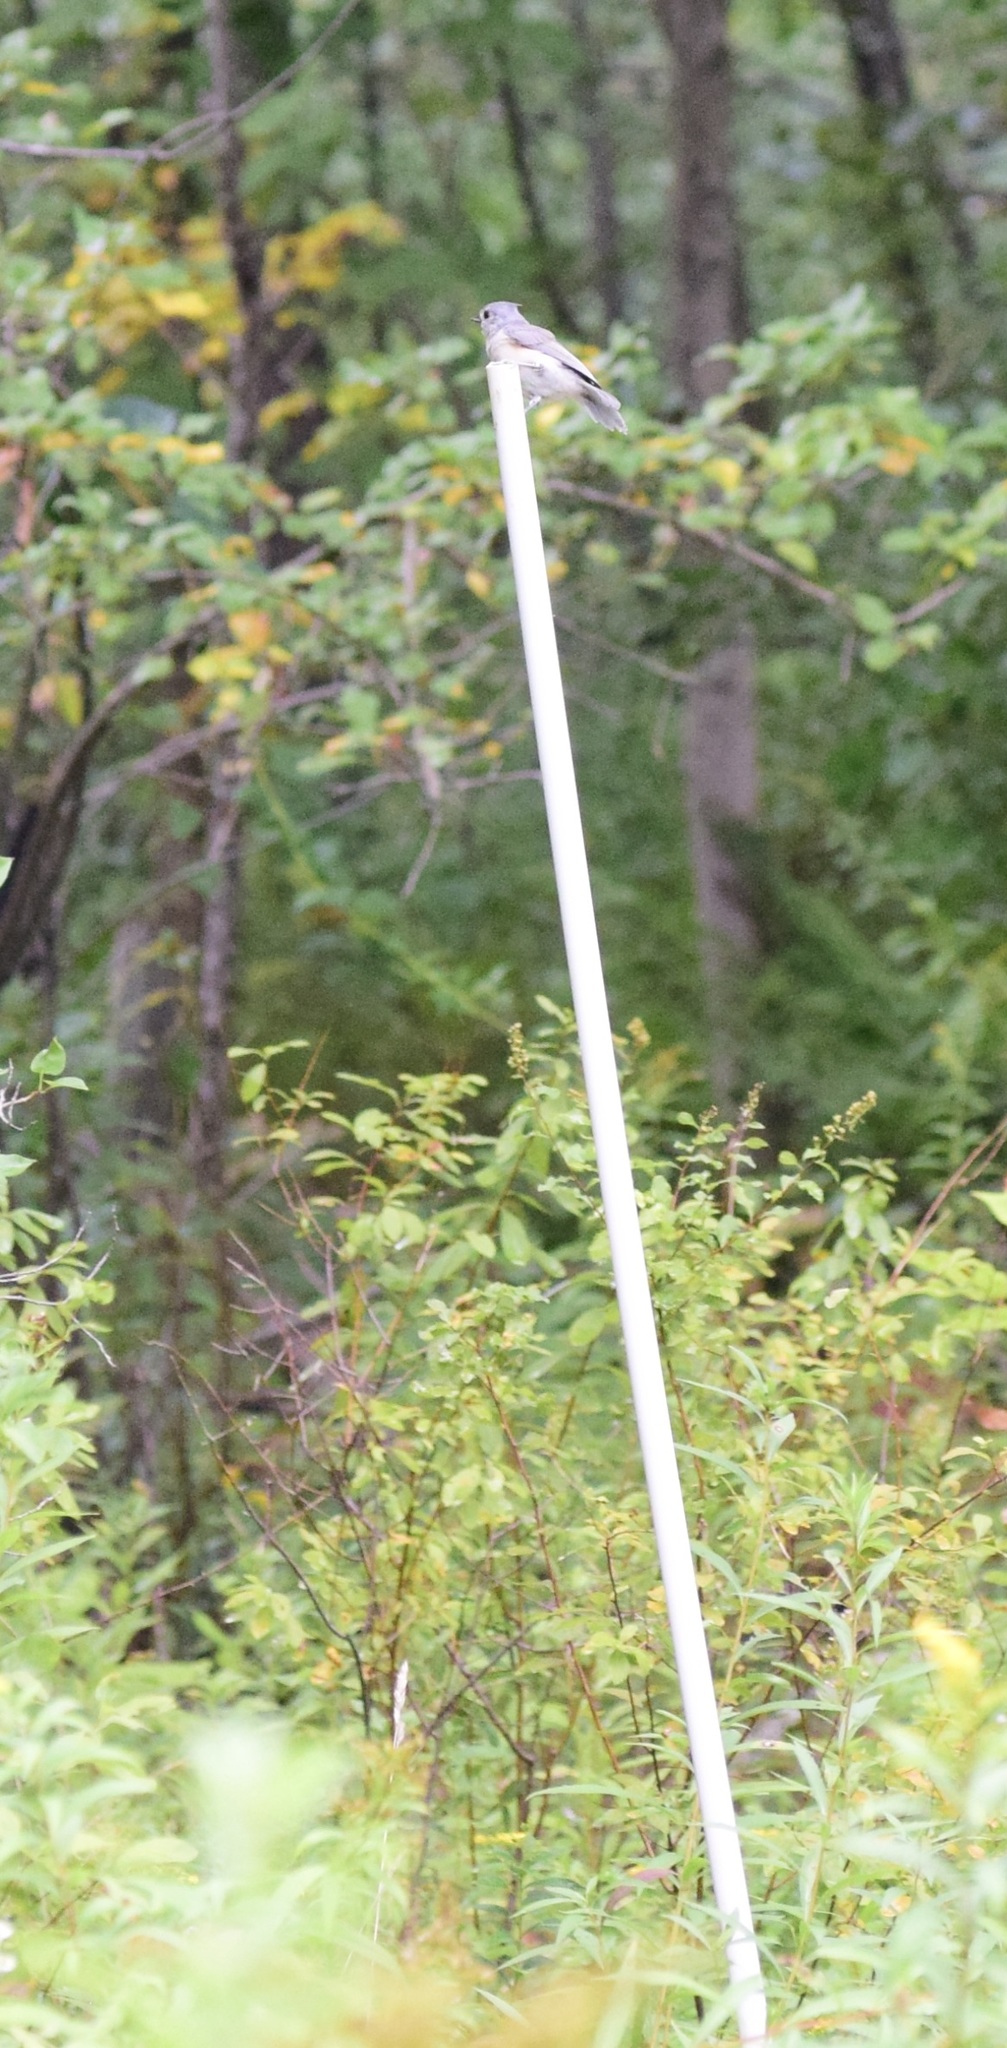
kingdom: Animalia
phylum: Chordata
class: Aves
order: Passeriformes
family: Paridae
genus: Baeolophus
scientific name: Baeolophus bicolor
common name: Tufted titmouse
